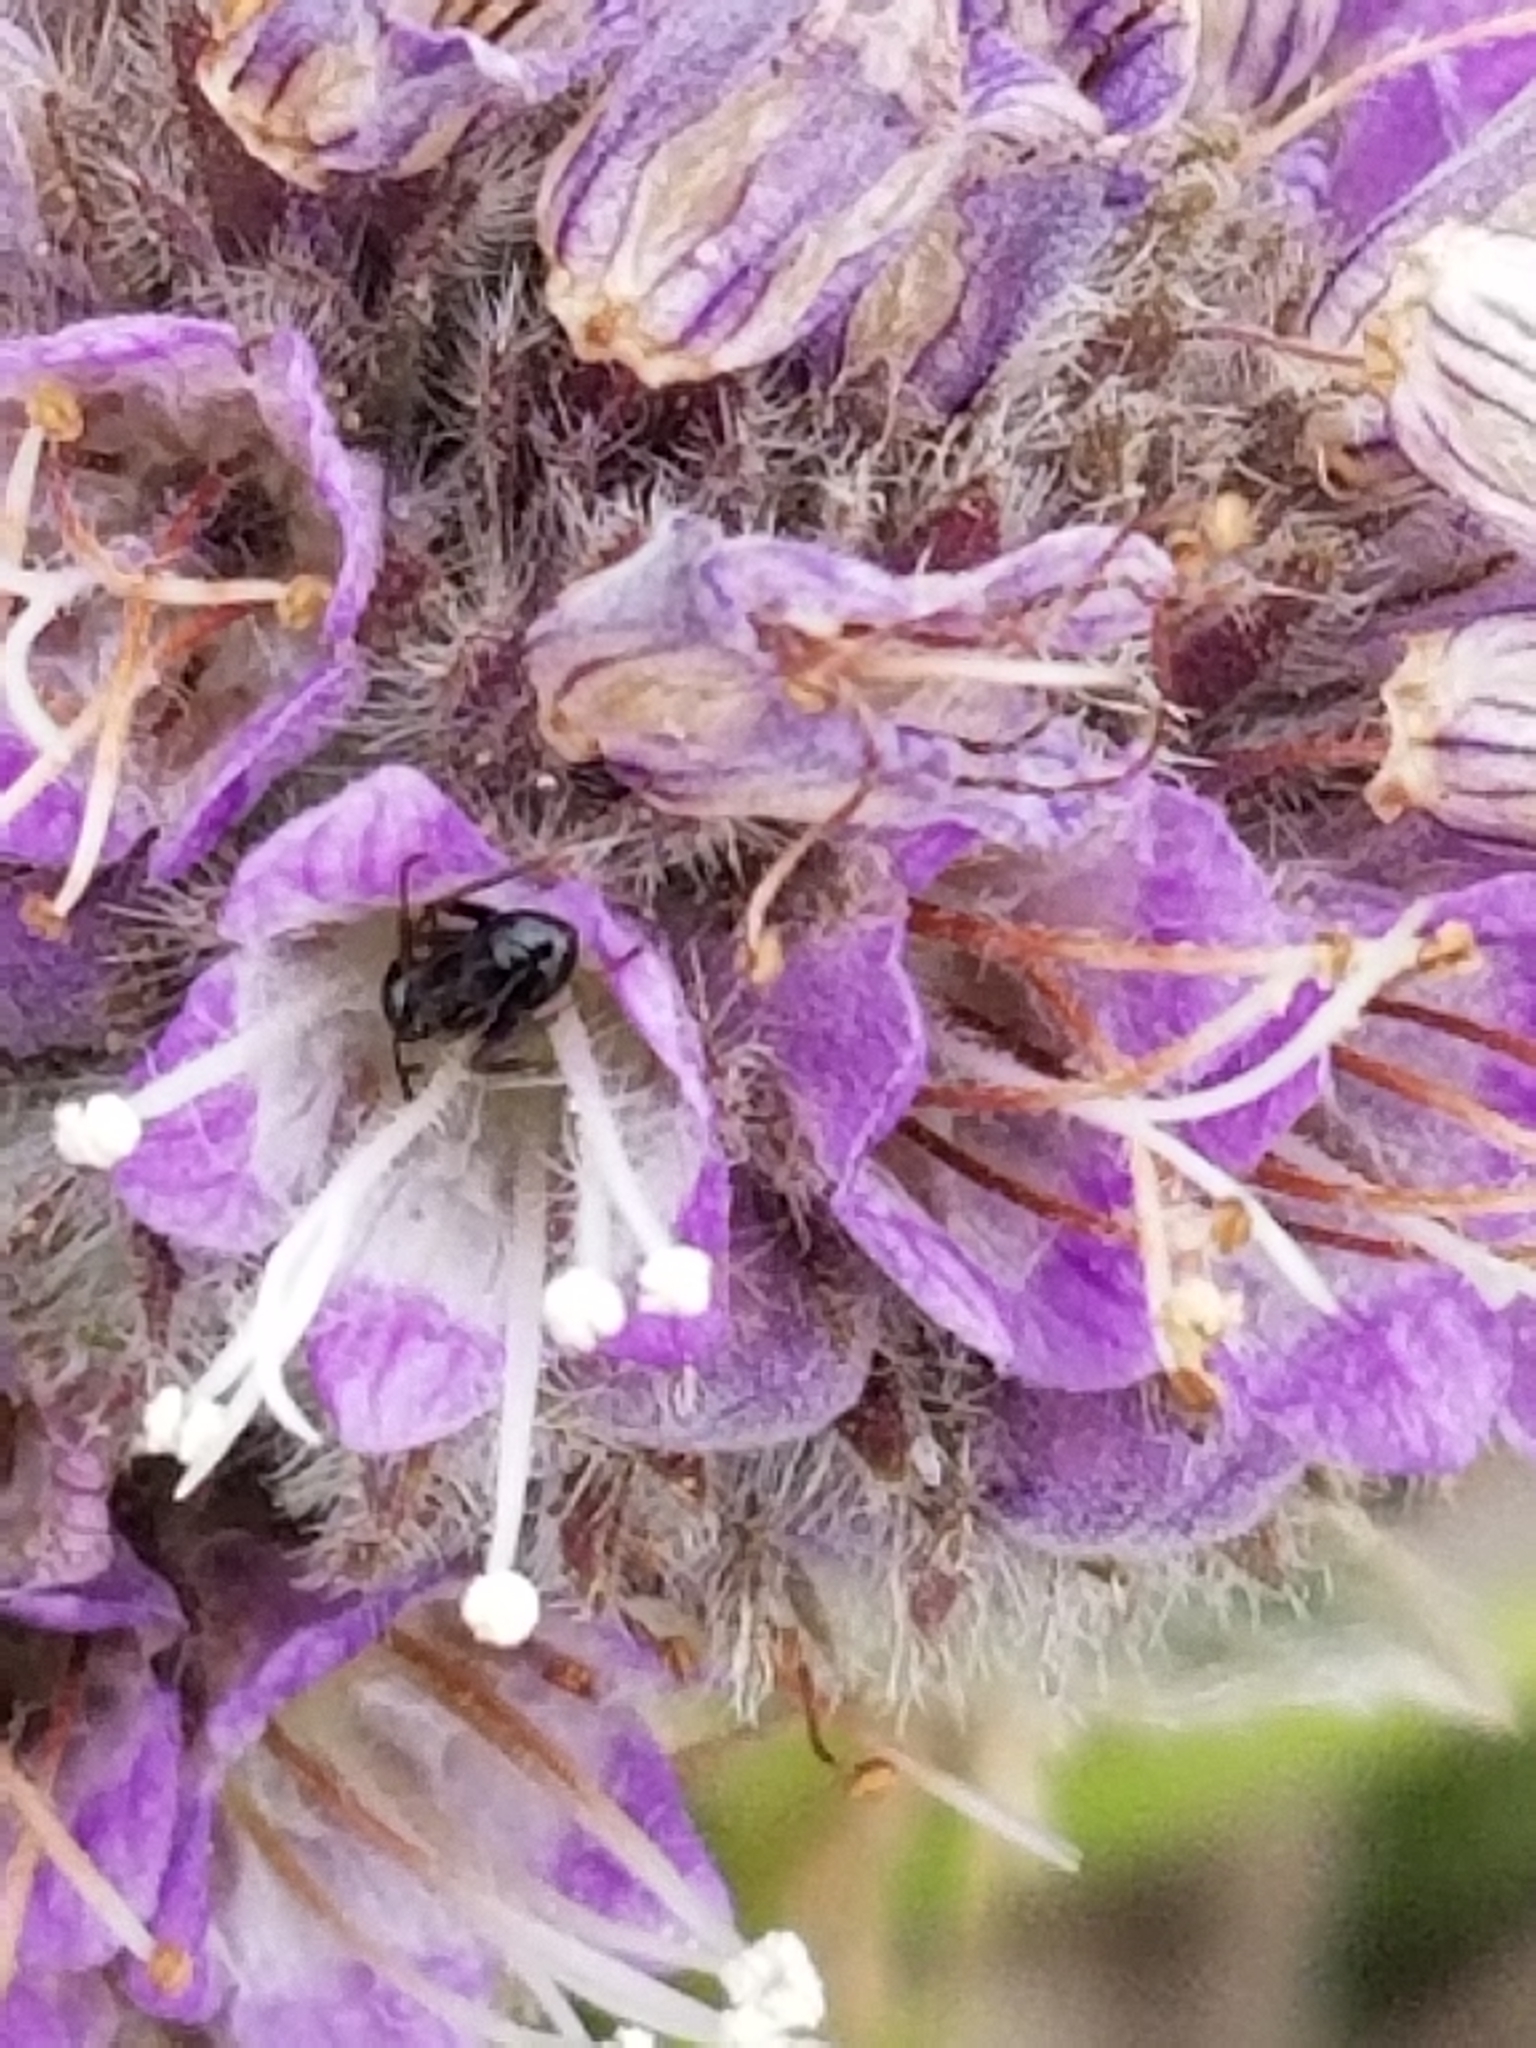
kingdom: Plantae
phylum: Tracheophyta
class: Magnoliopsida
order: Boraginales
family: Hydrophyllaceae
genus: Phacelia
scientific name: Phacelia californica
